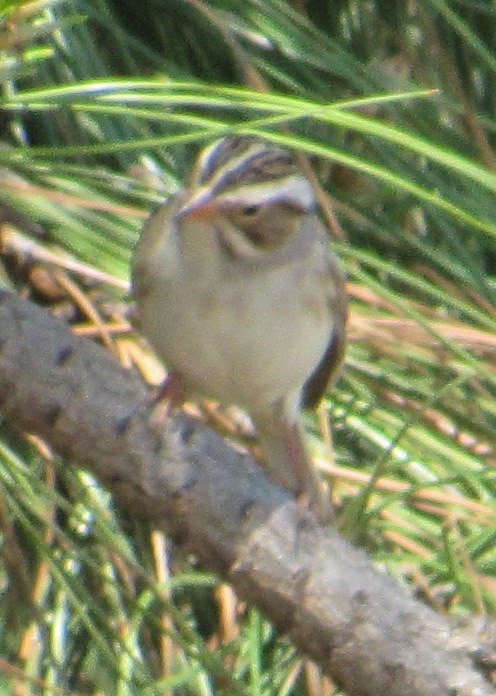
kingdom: Animalia
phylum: Chordata
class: Aves
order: Passeriformes
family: Passerellidae
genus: Spizella
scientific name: Spizella pallida
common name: Clay-colored sparrow
